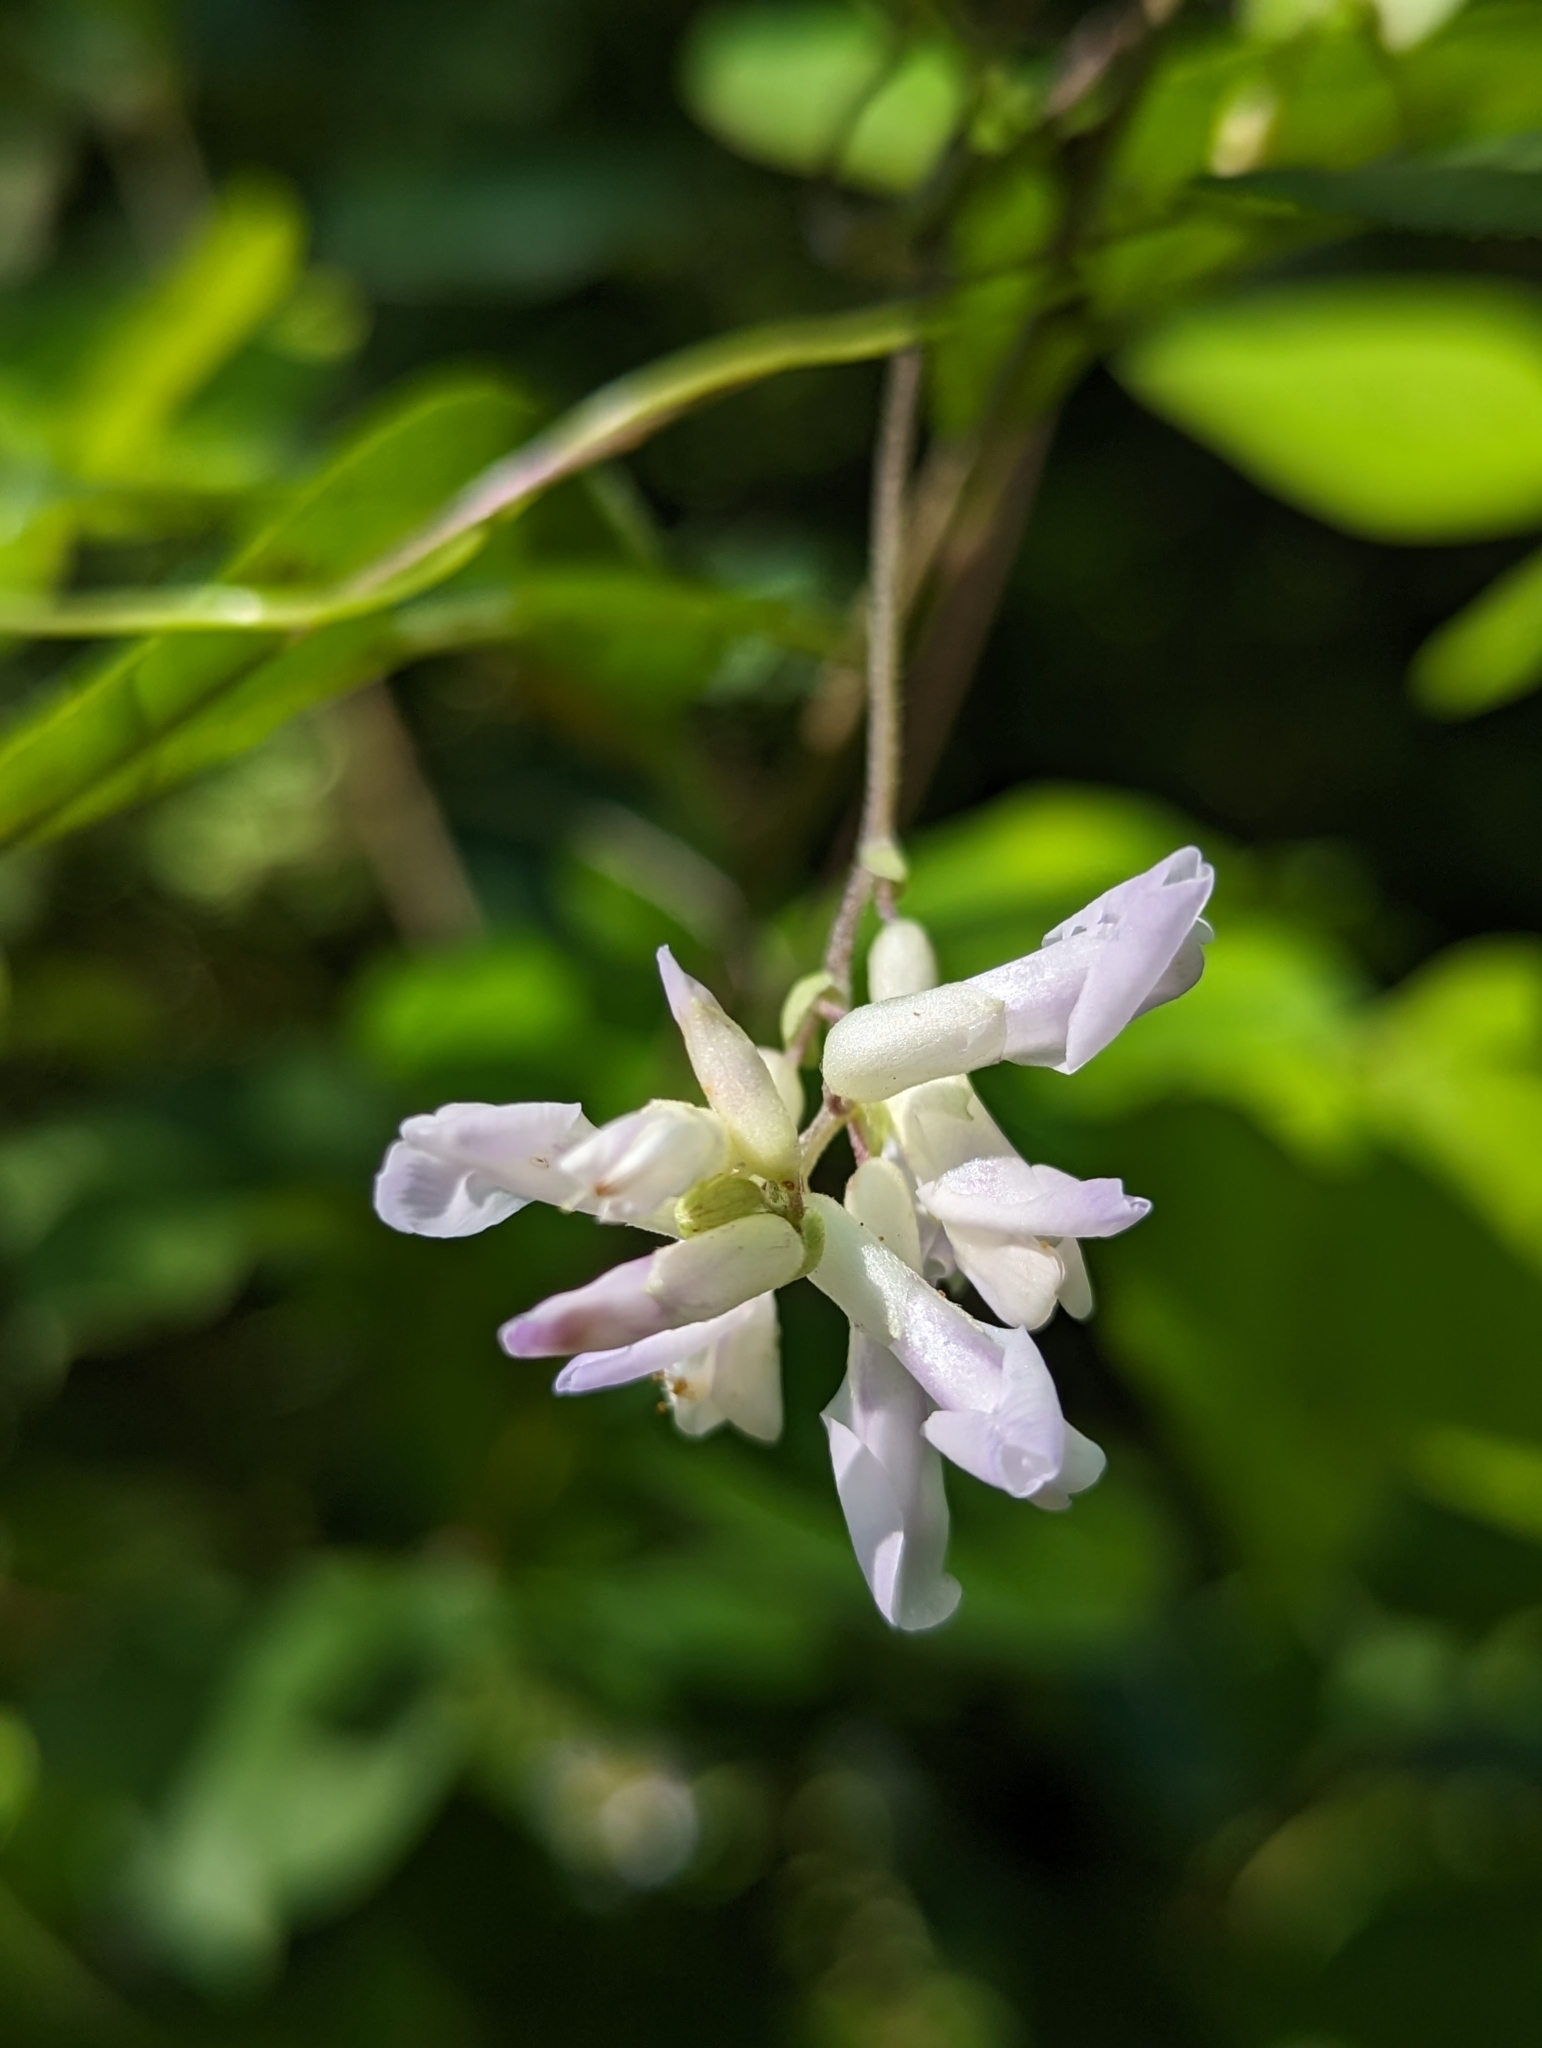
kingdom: Plantae
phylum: Tracheophyta
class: Magnoliopsida
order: Fabales
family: Fabaceae
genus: Amphicarpaea
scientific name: Amphicarpaea bracteata
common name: American hog peanut
